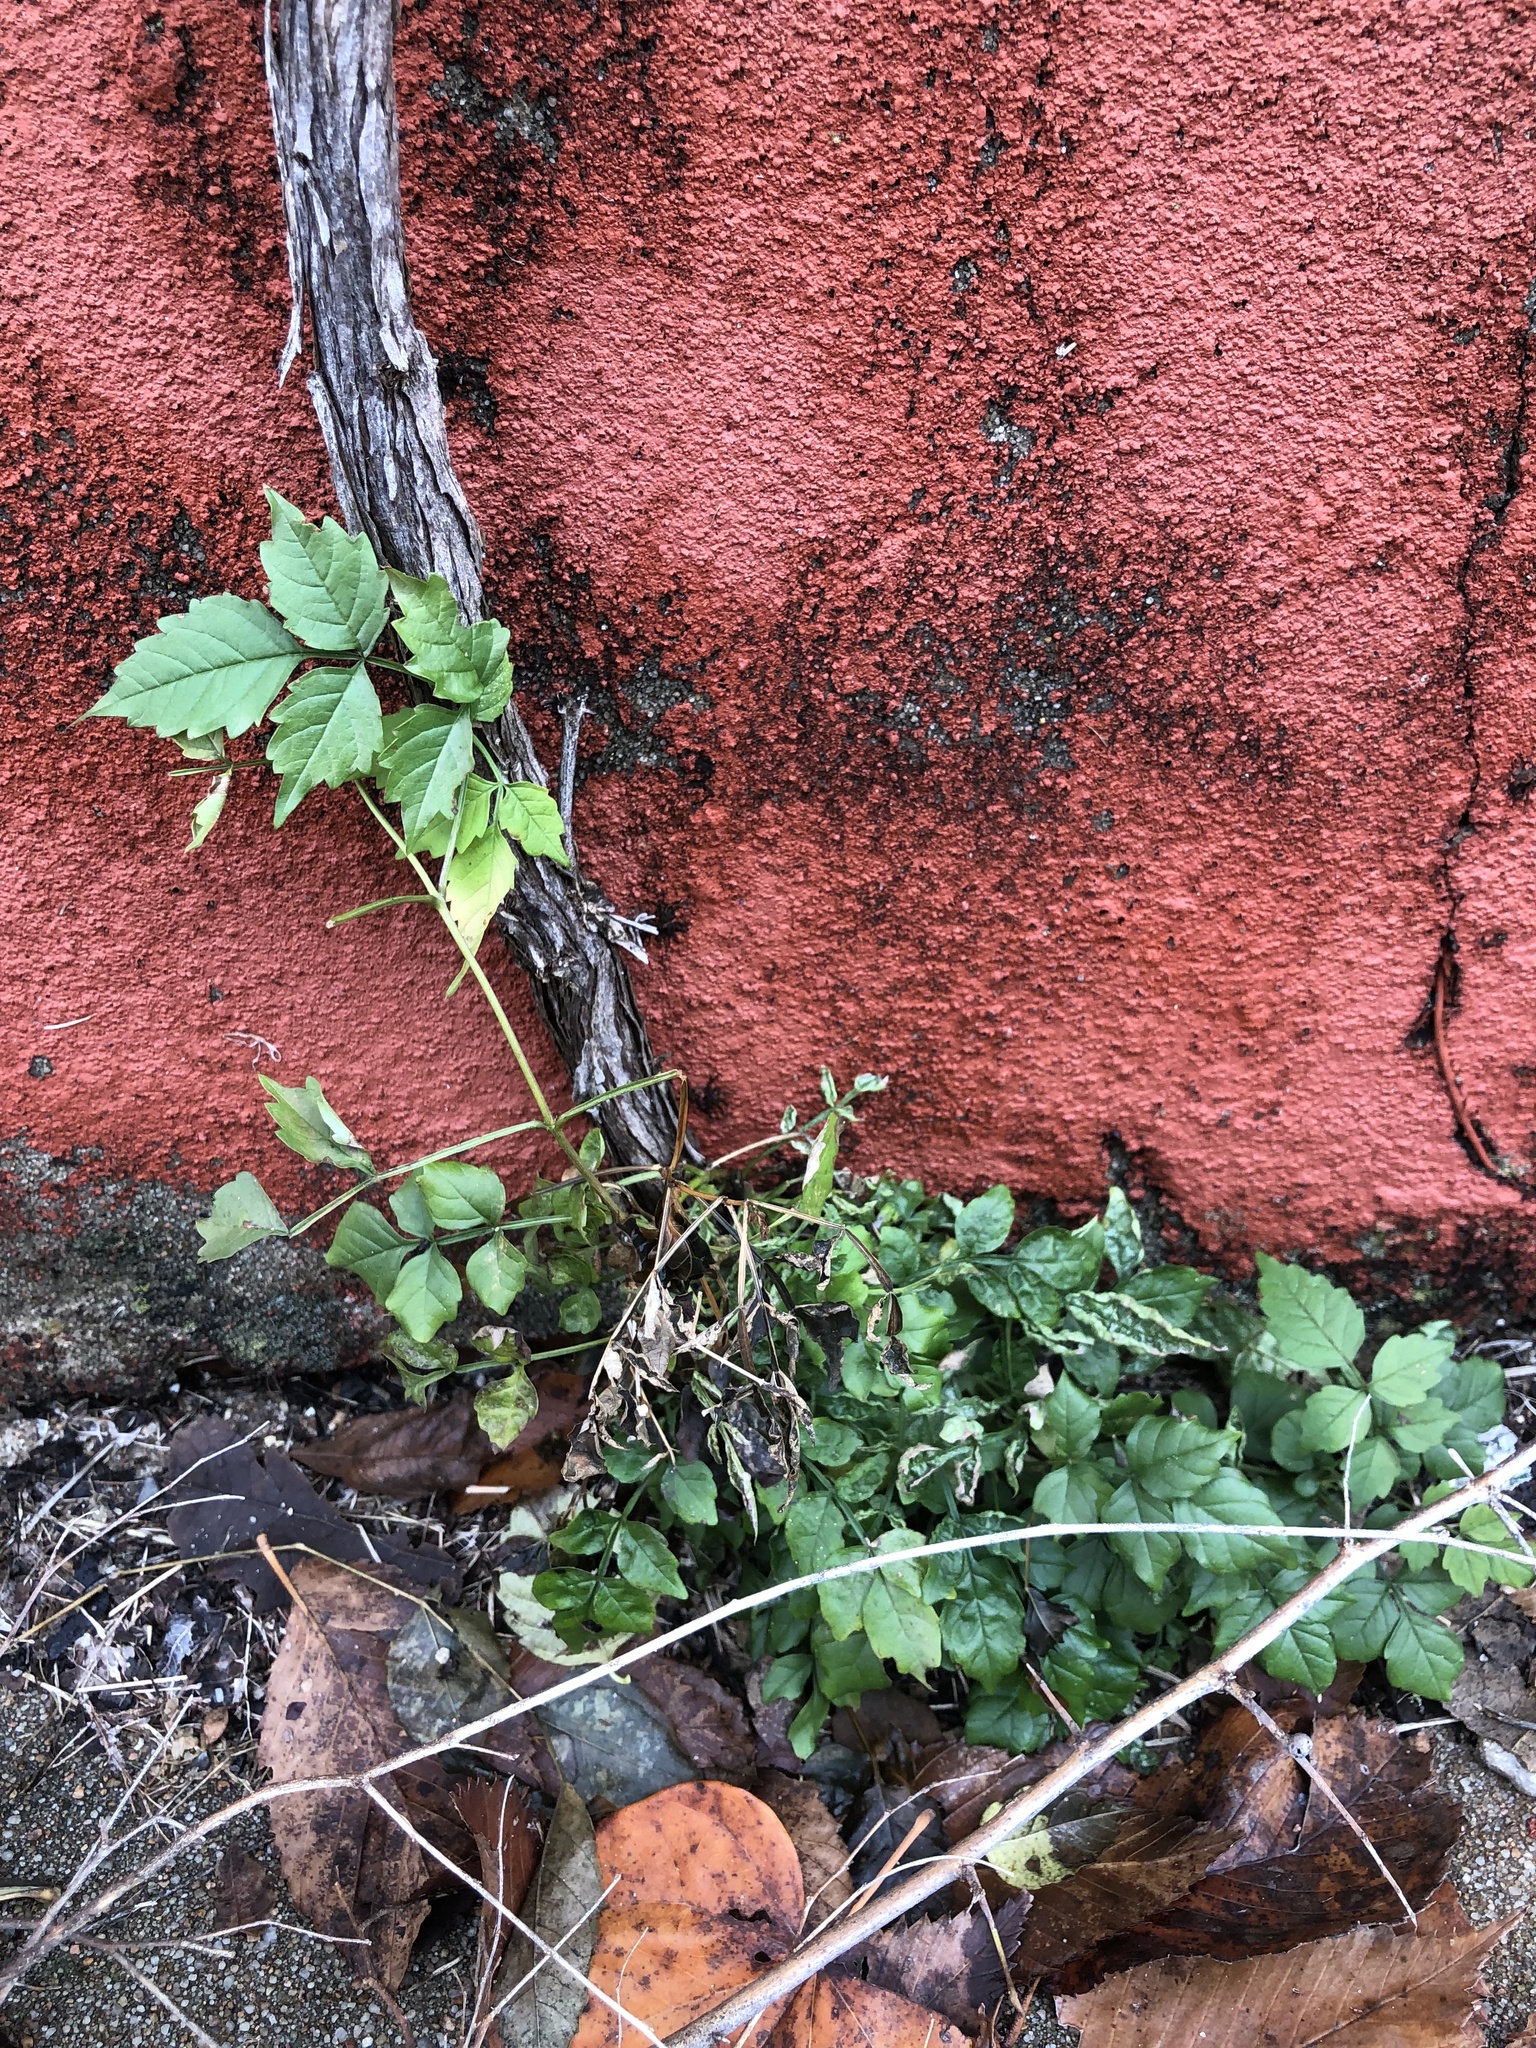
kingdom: Plantae
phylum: Tracheophyta
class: Magnoliopsida
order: Lamiales
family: Bignoniaceae
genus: Campsis
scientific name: Campsis radicans
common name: Trumpet-creeper
